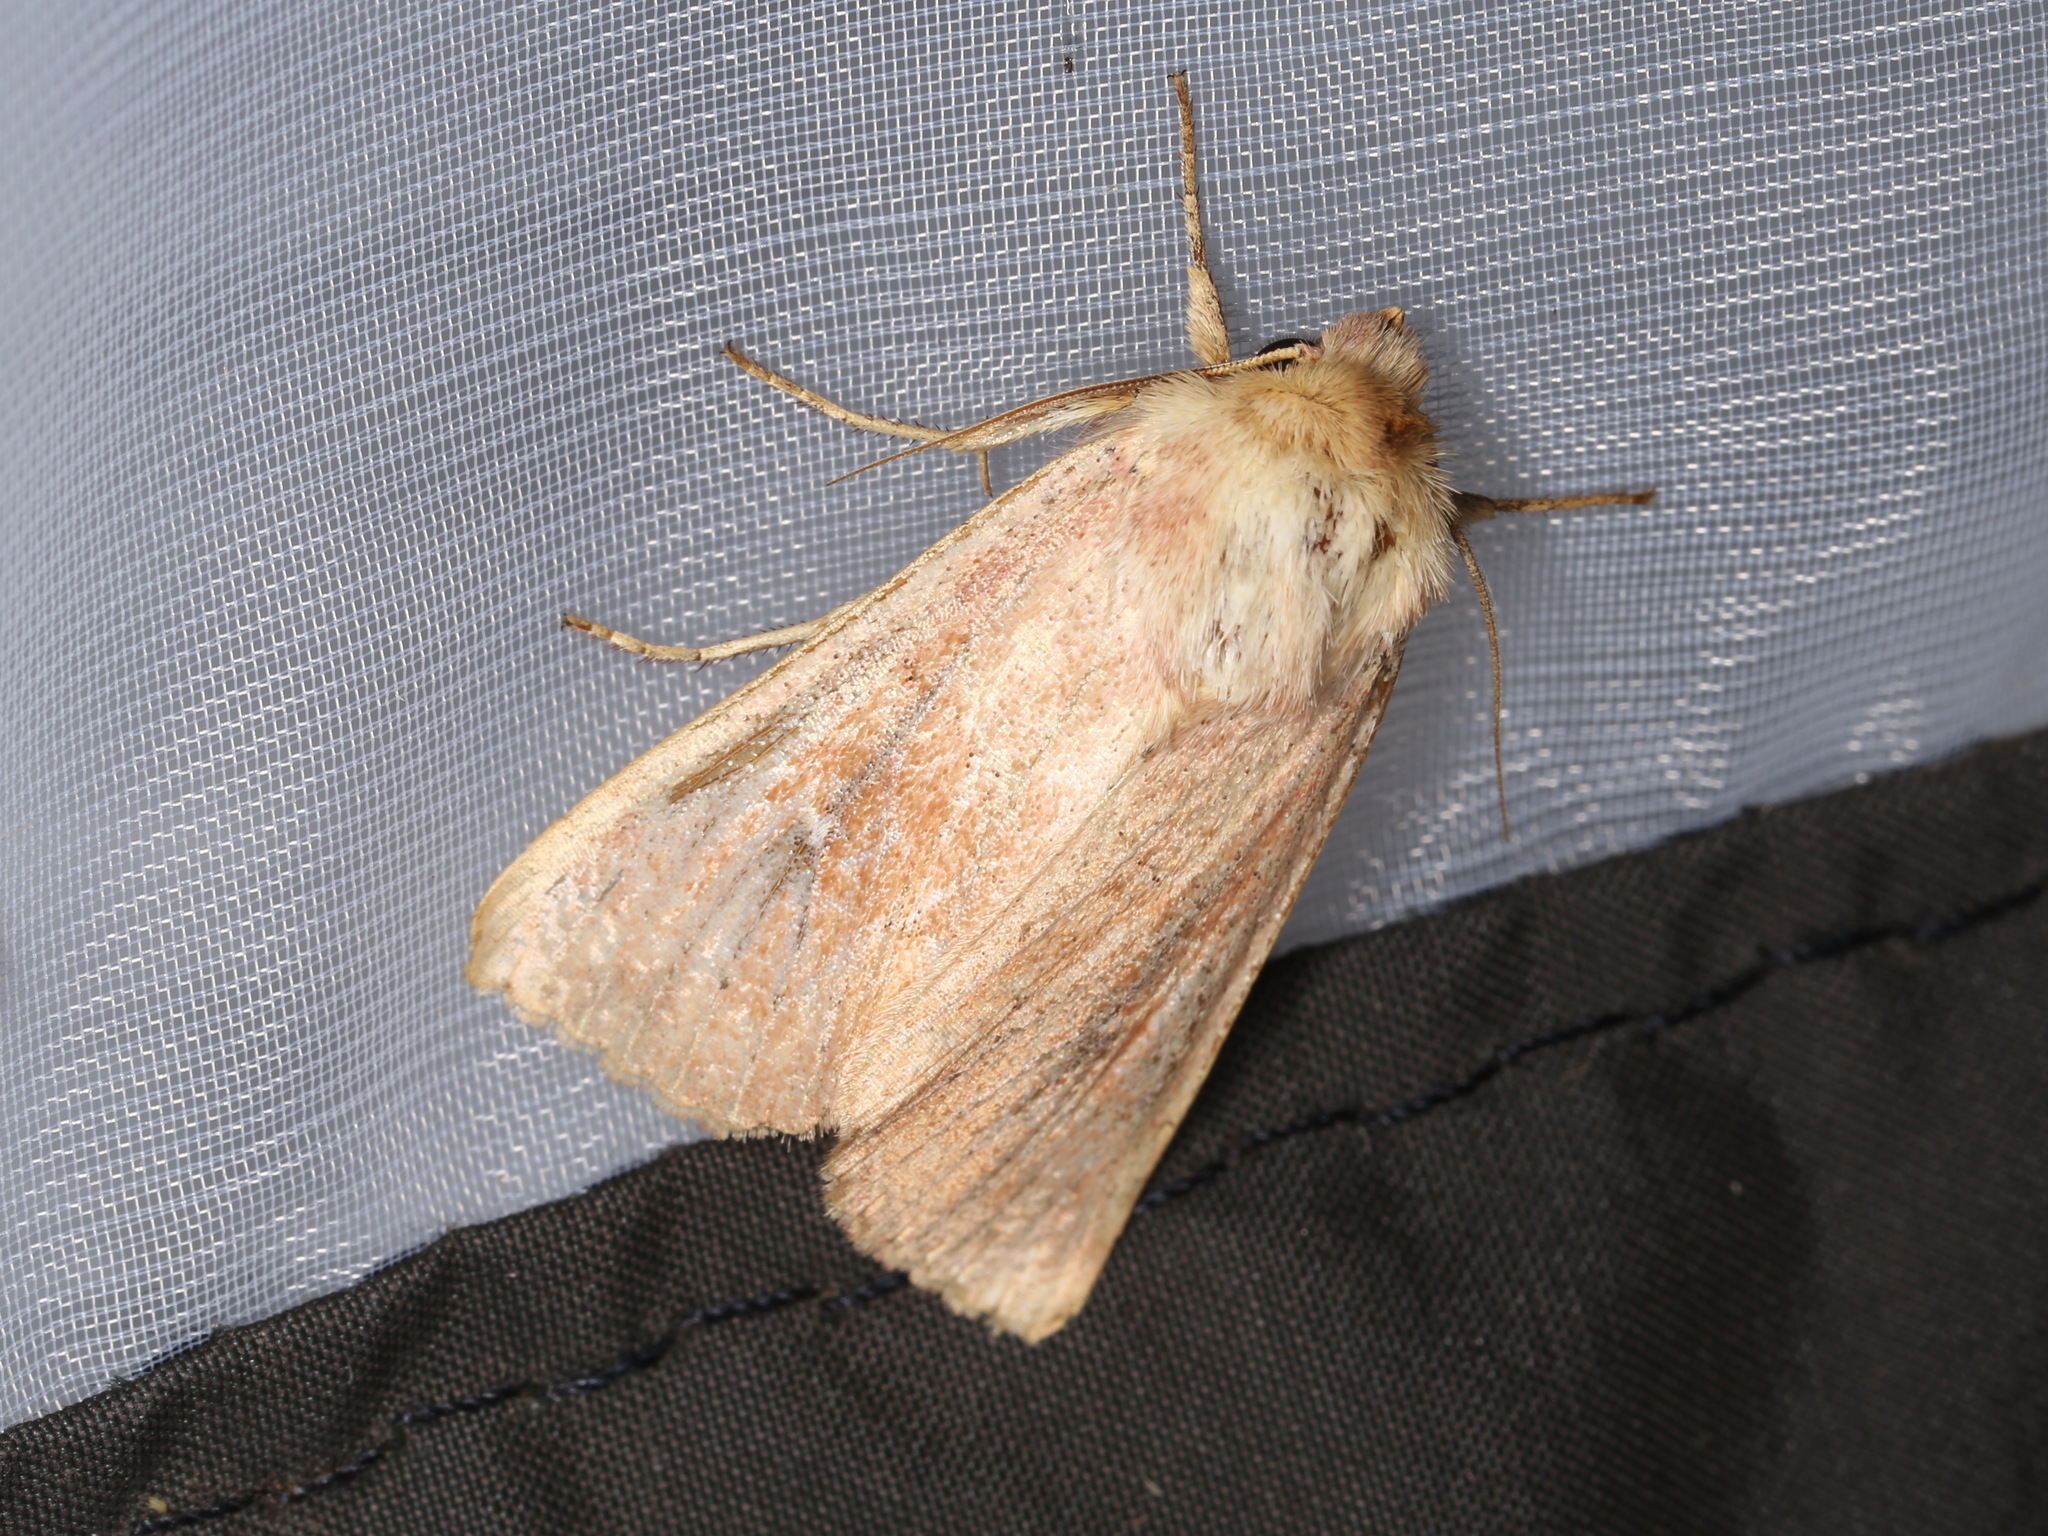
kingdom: Animalia
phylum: Arthropoda
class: Insecta
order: Lepidoptera
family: Noctuidae
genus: Mythimna
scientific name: Mythimna ferrago
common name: Clay
